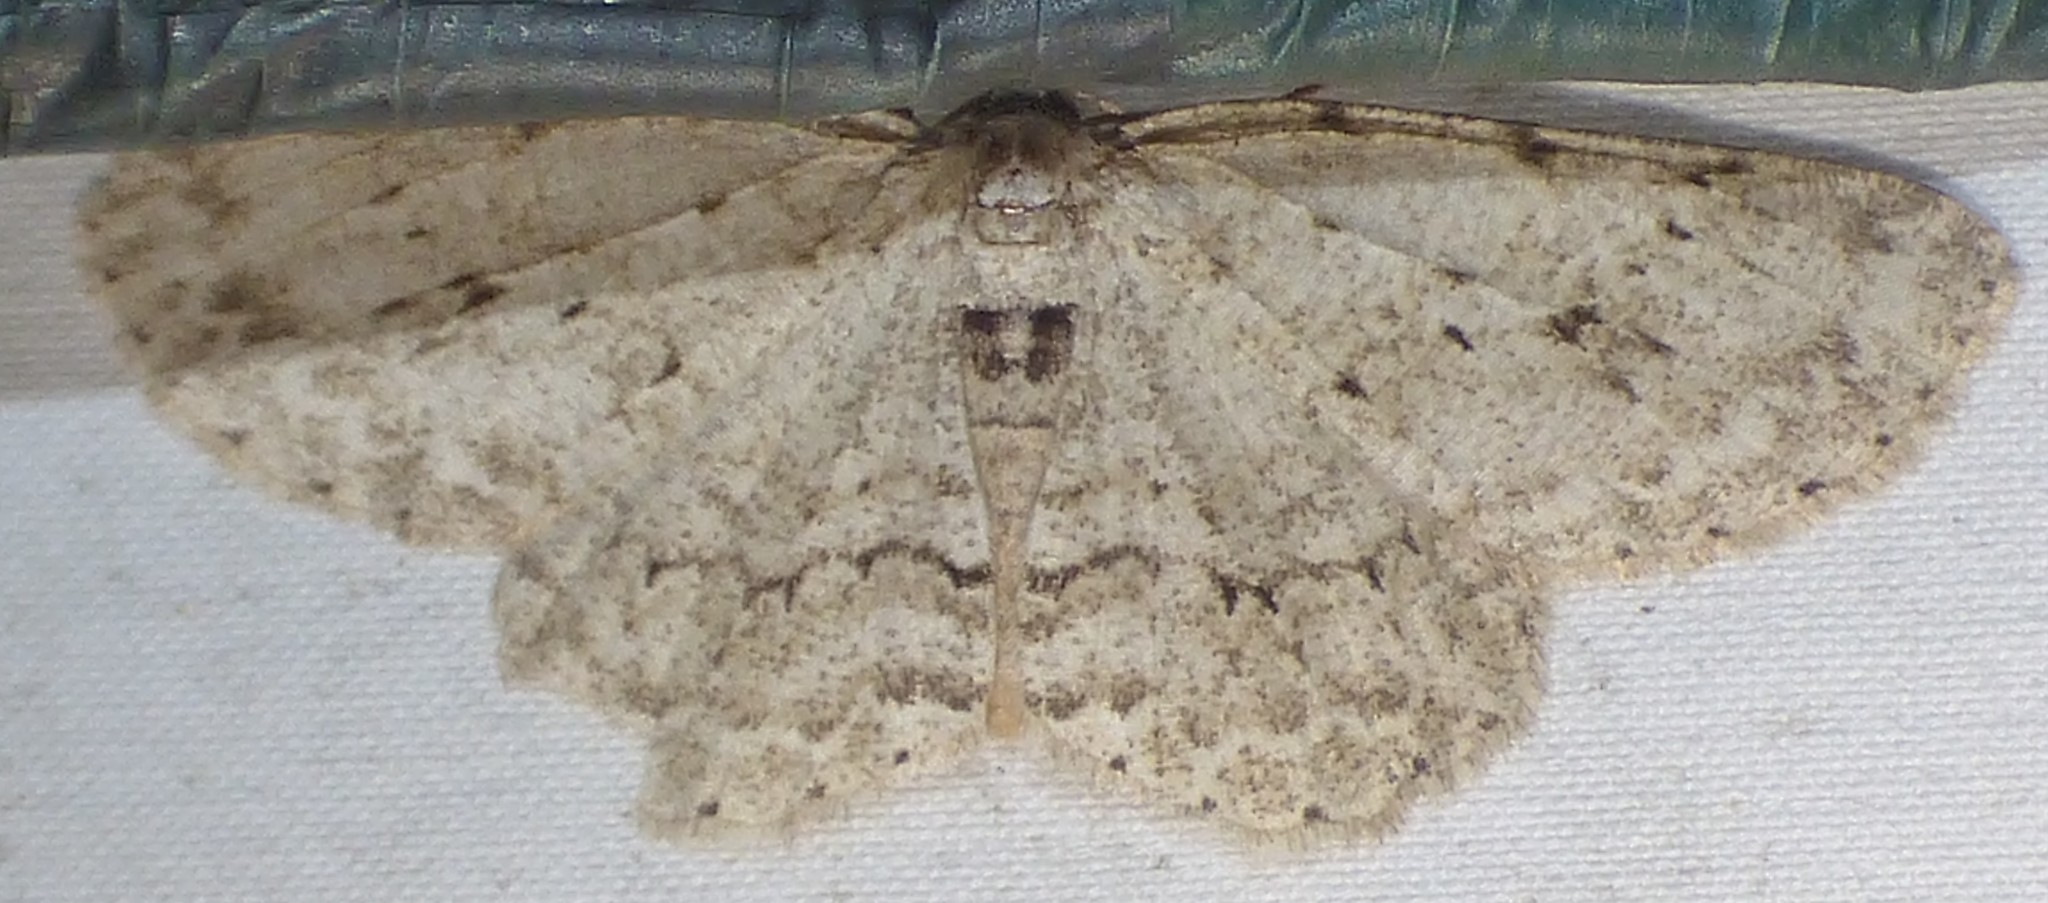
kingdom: Animalia
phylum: Arthropoda
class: Insecta
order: Lepidoptera
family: Geometridae
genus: Ectropis
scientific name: Ectropis crepuscularia
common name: Engrailed
